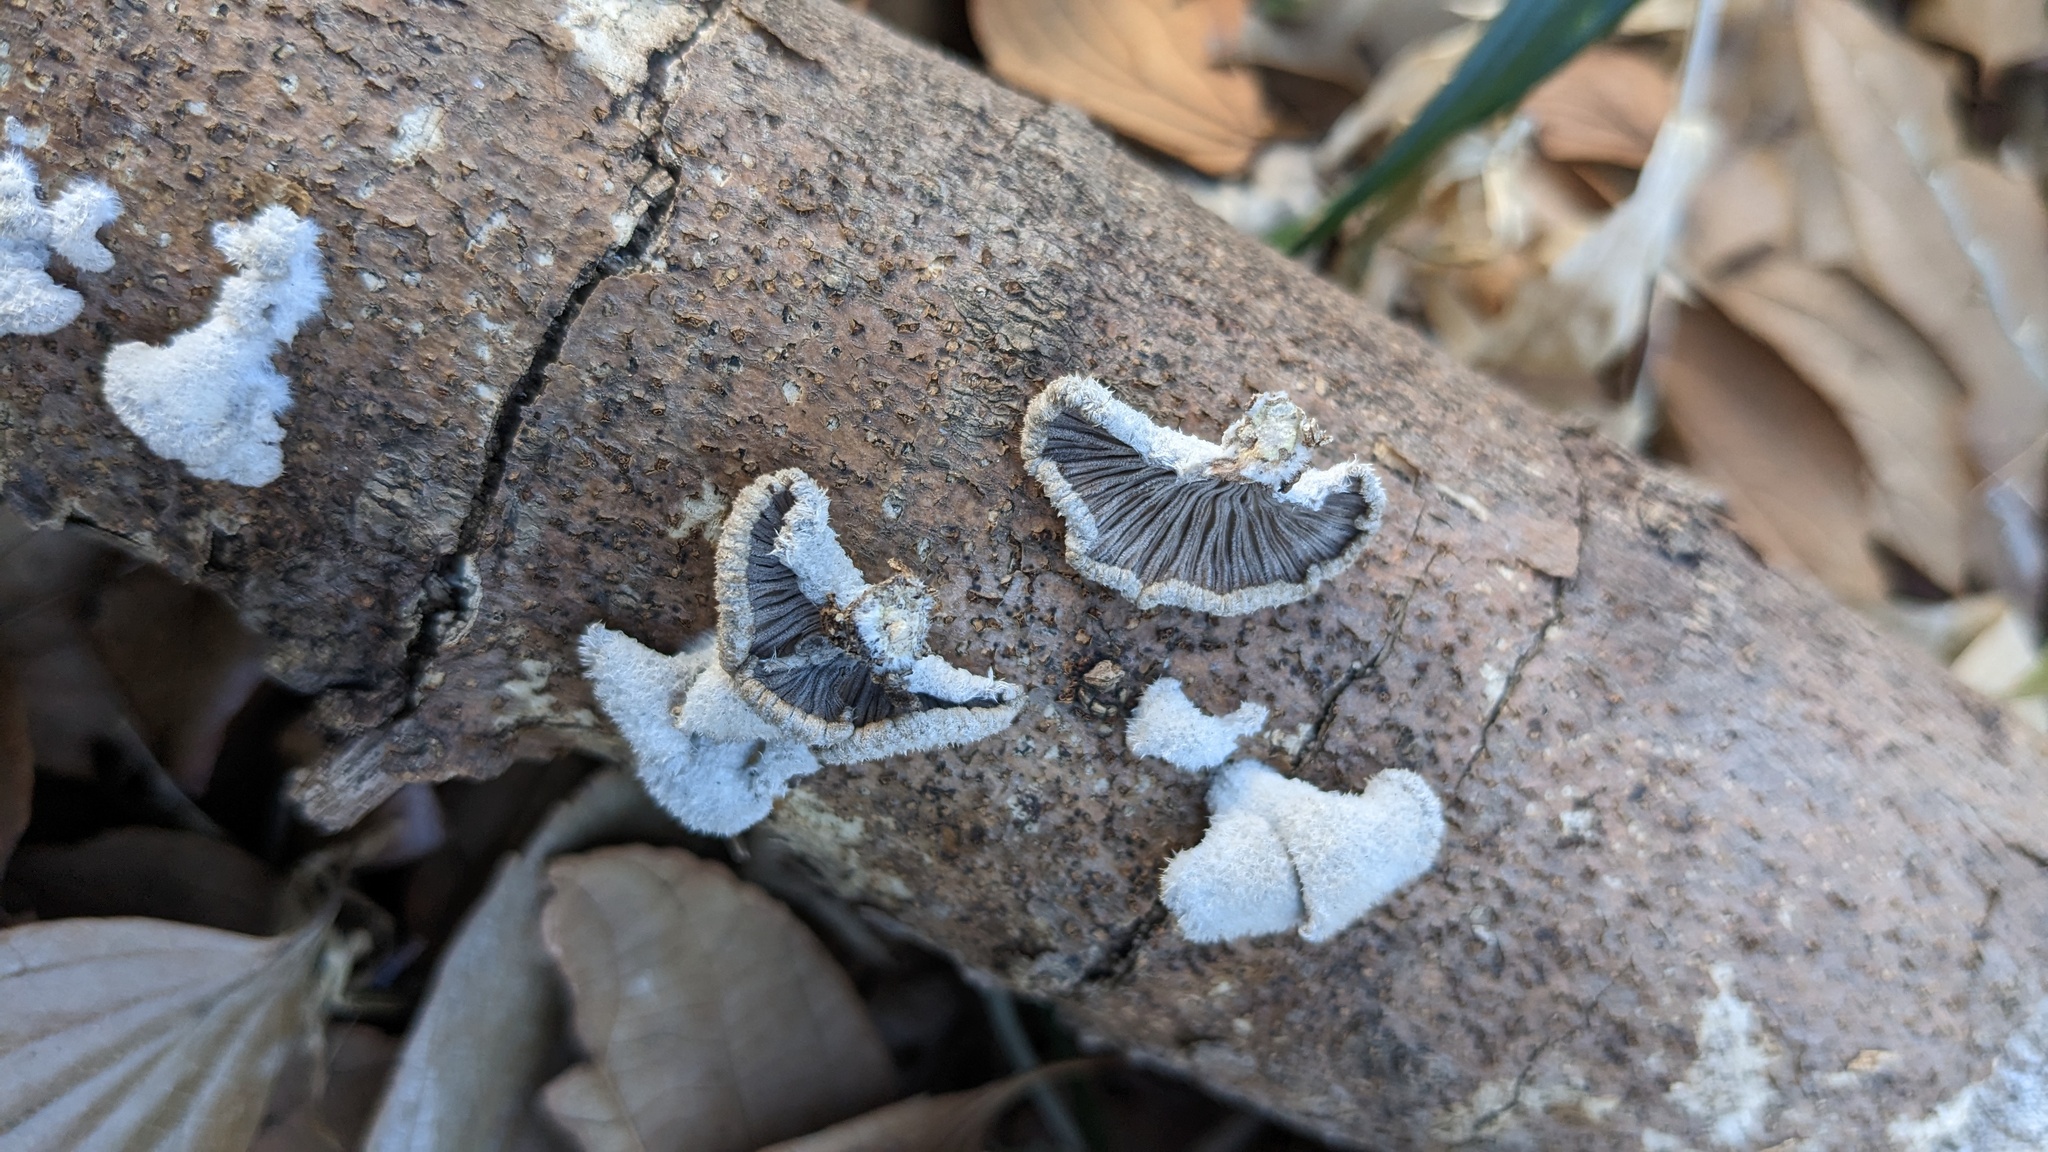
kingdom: Fungi
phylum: Basidiomycota
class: Agaricomycetes
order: Agaricales
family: Schizophyllaceae
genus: Schizophyllum
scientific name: Schizophyllum commune
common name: Common porecrust
